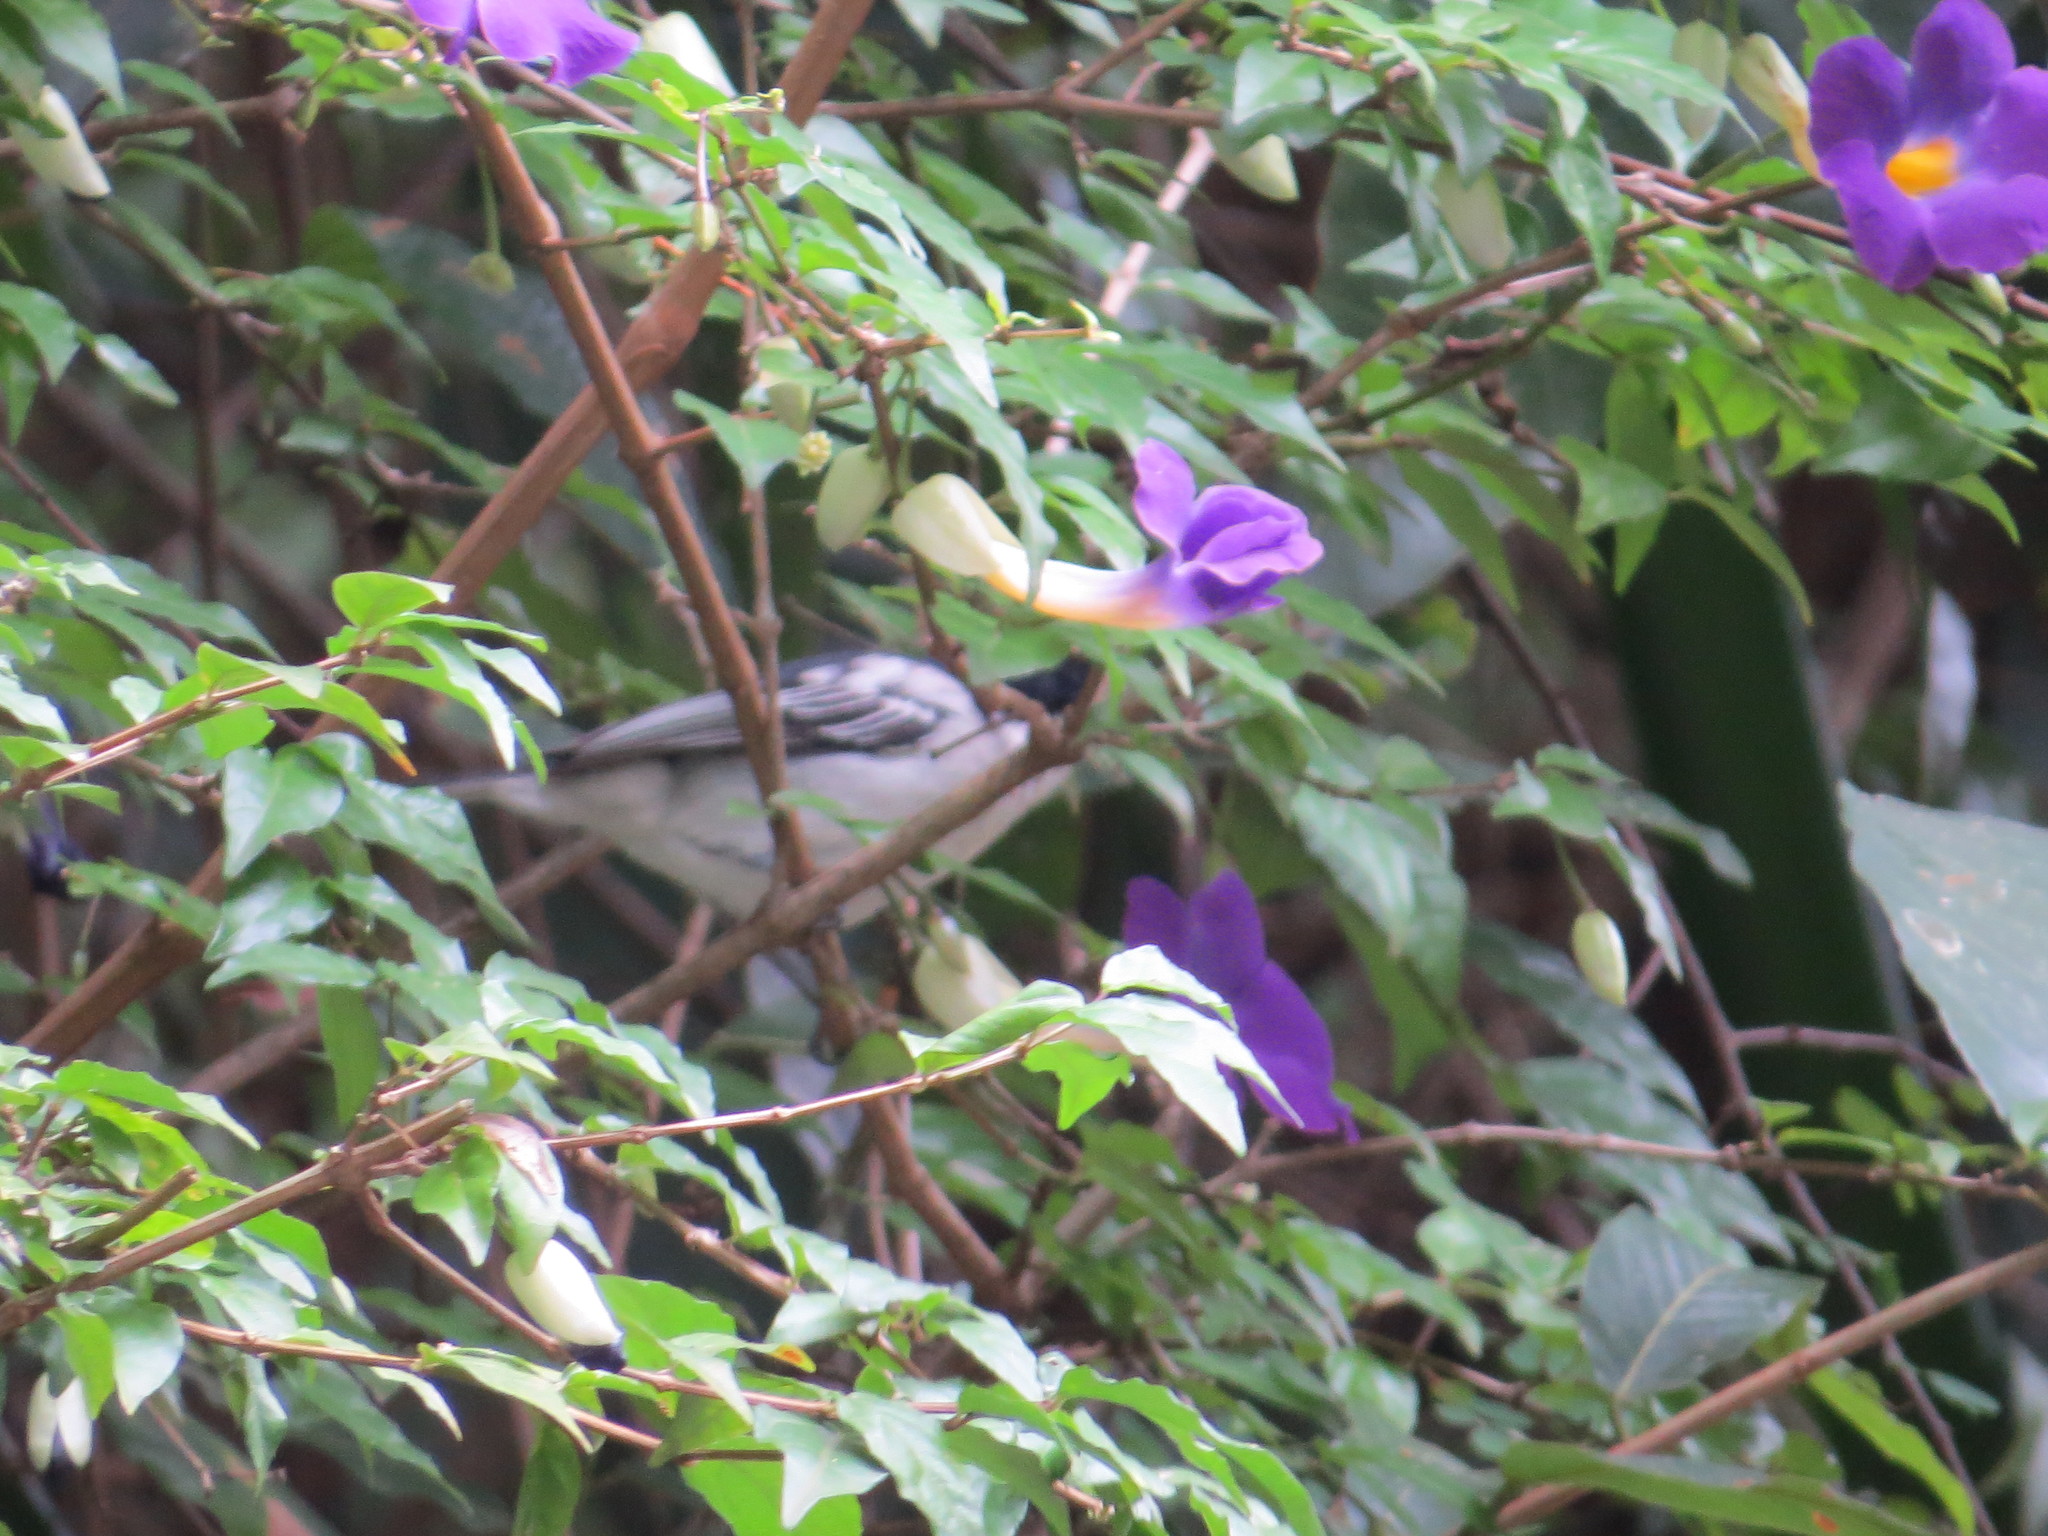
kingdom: Animalia
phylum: Chordata
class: Aves
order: Passeriformes
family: Malaconotidae
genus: Dryoscopus
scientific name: Dryoscopus cubla
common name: Black-backed puffback
